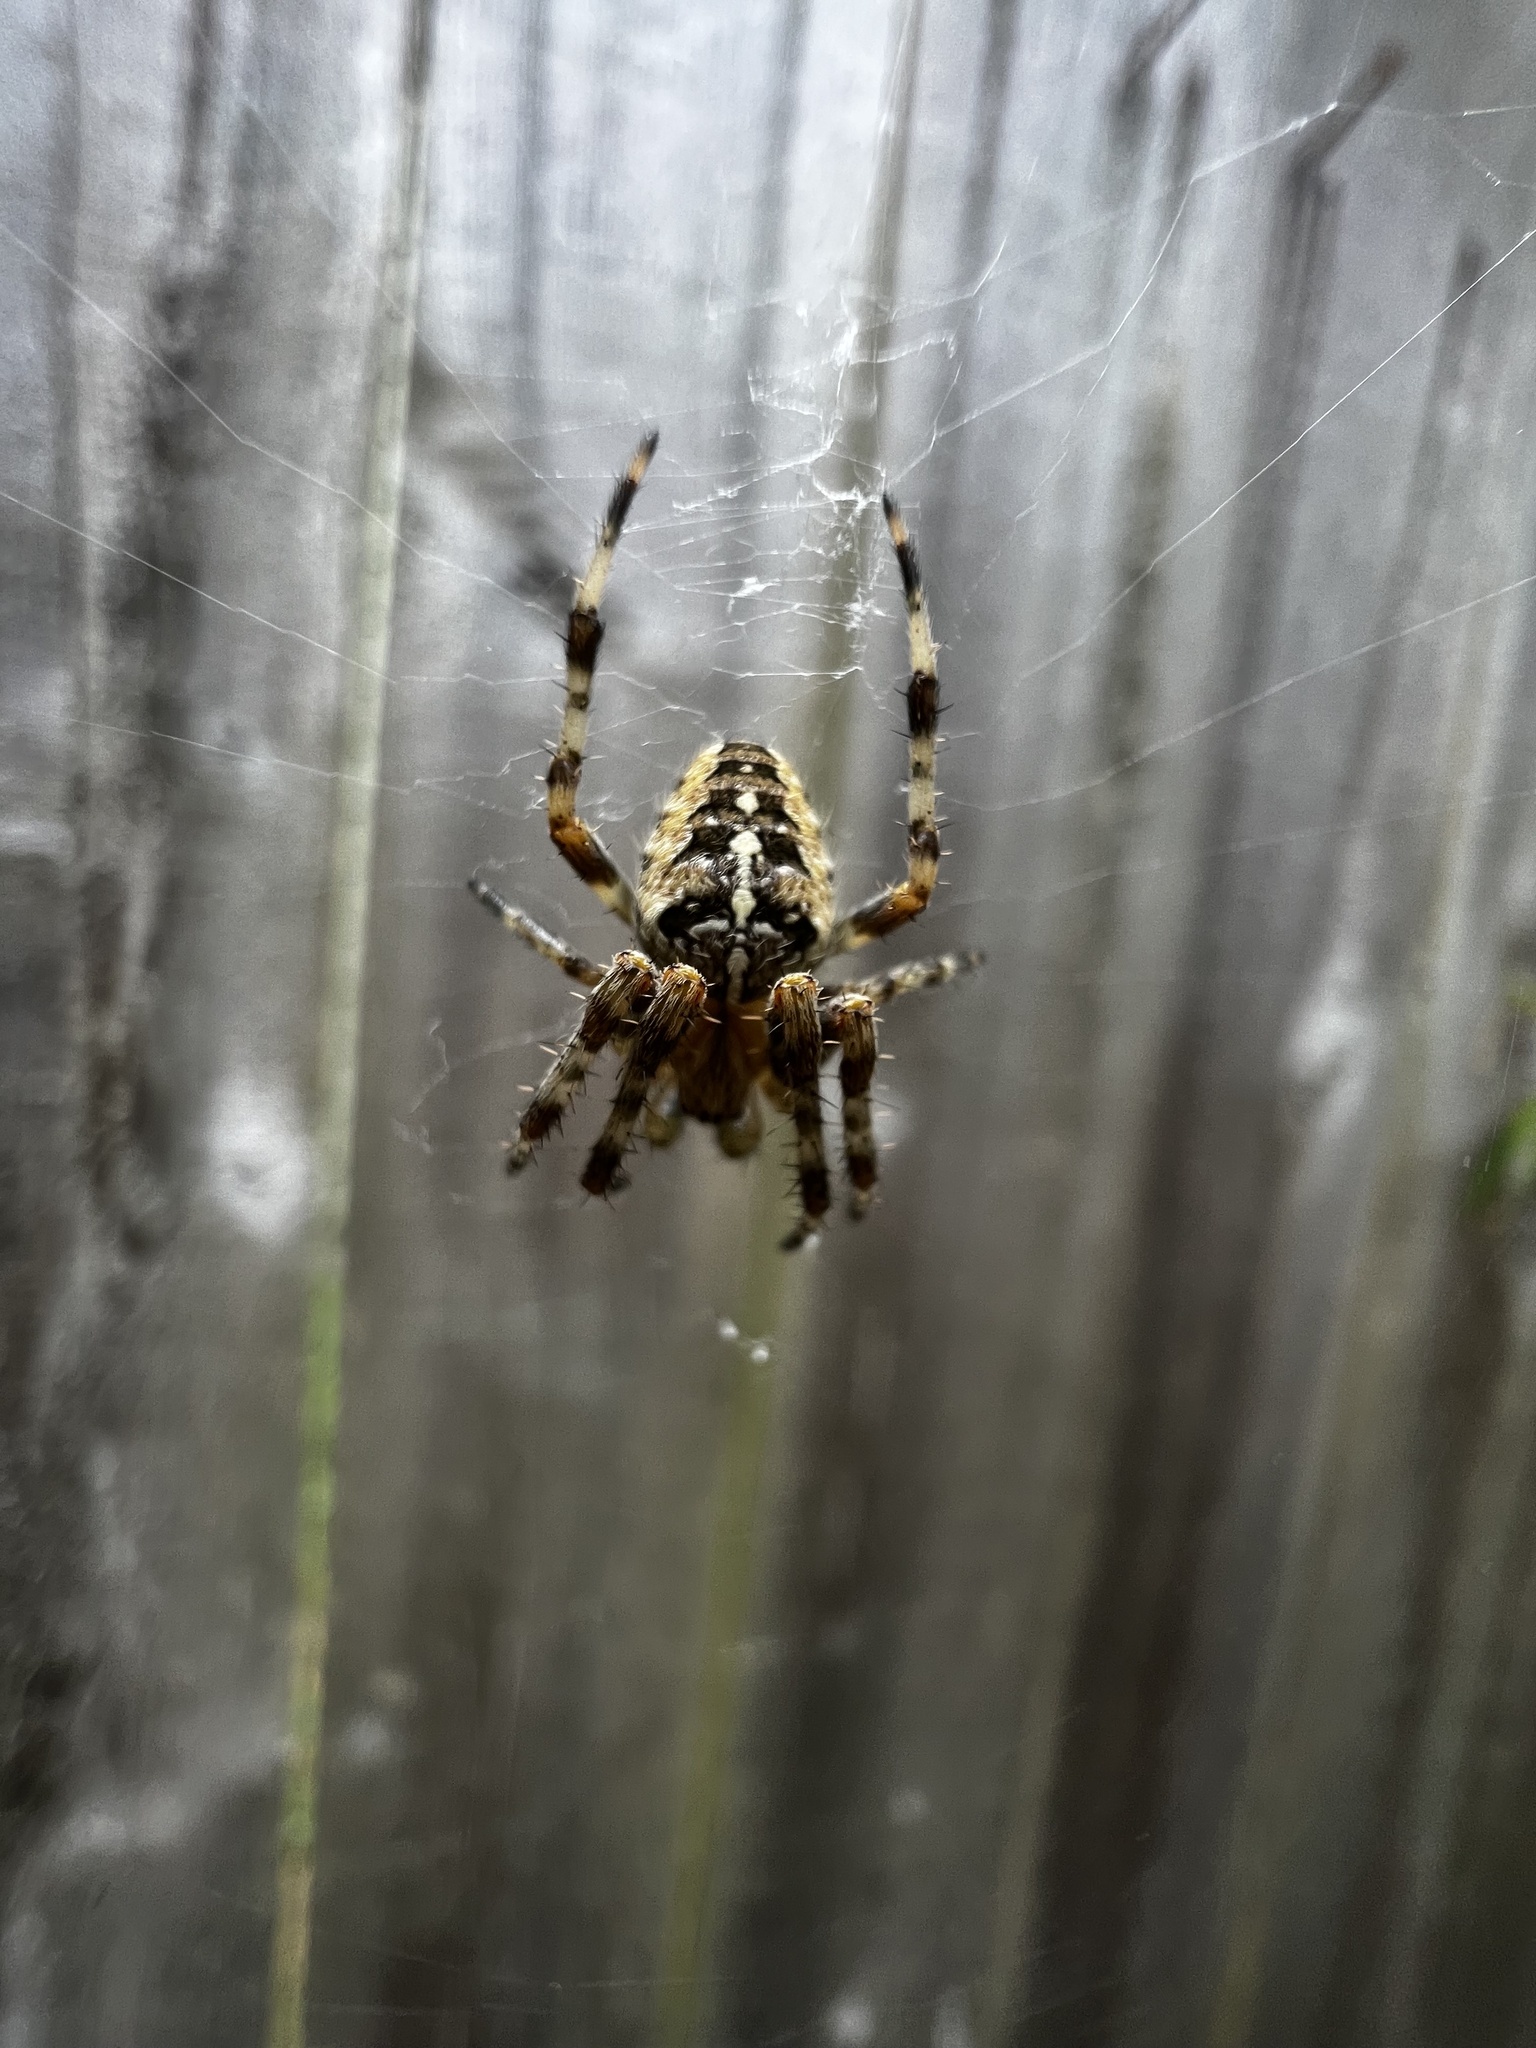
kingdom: Animalia
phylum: Arthropoda
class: Arachnida
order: Araneae
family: Araneidae
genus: Araneus
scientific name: Araneus diadematus
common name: Cross orbweaver
